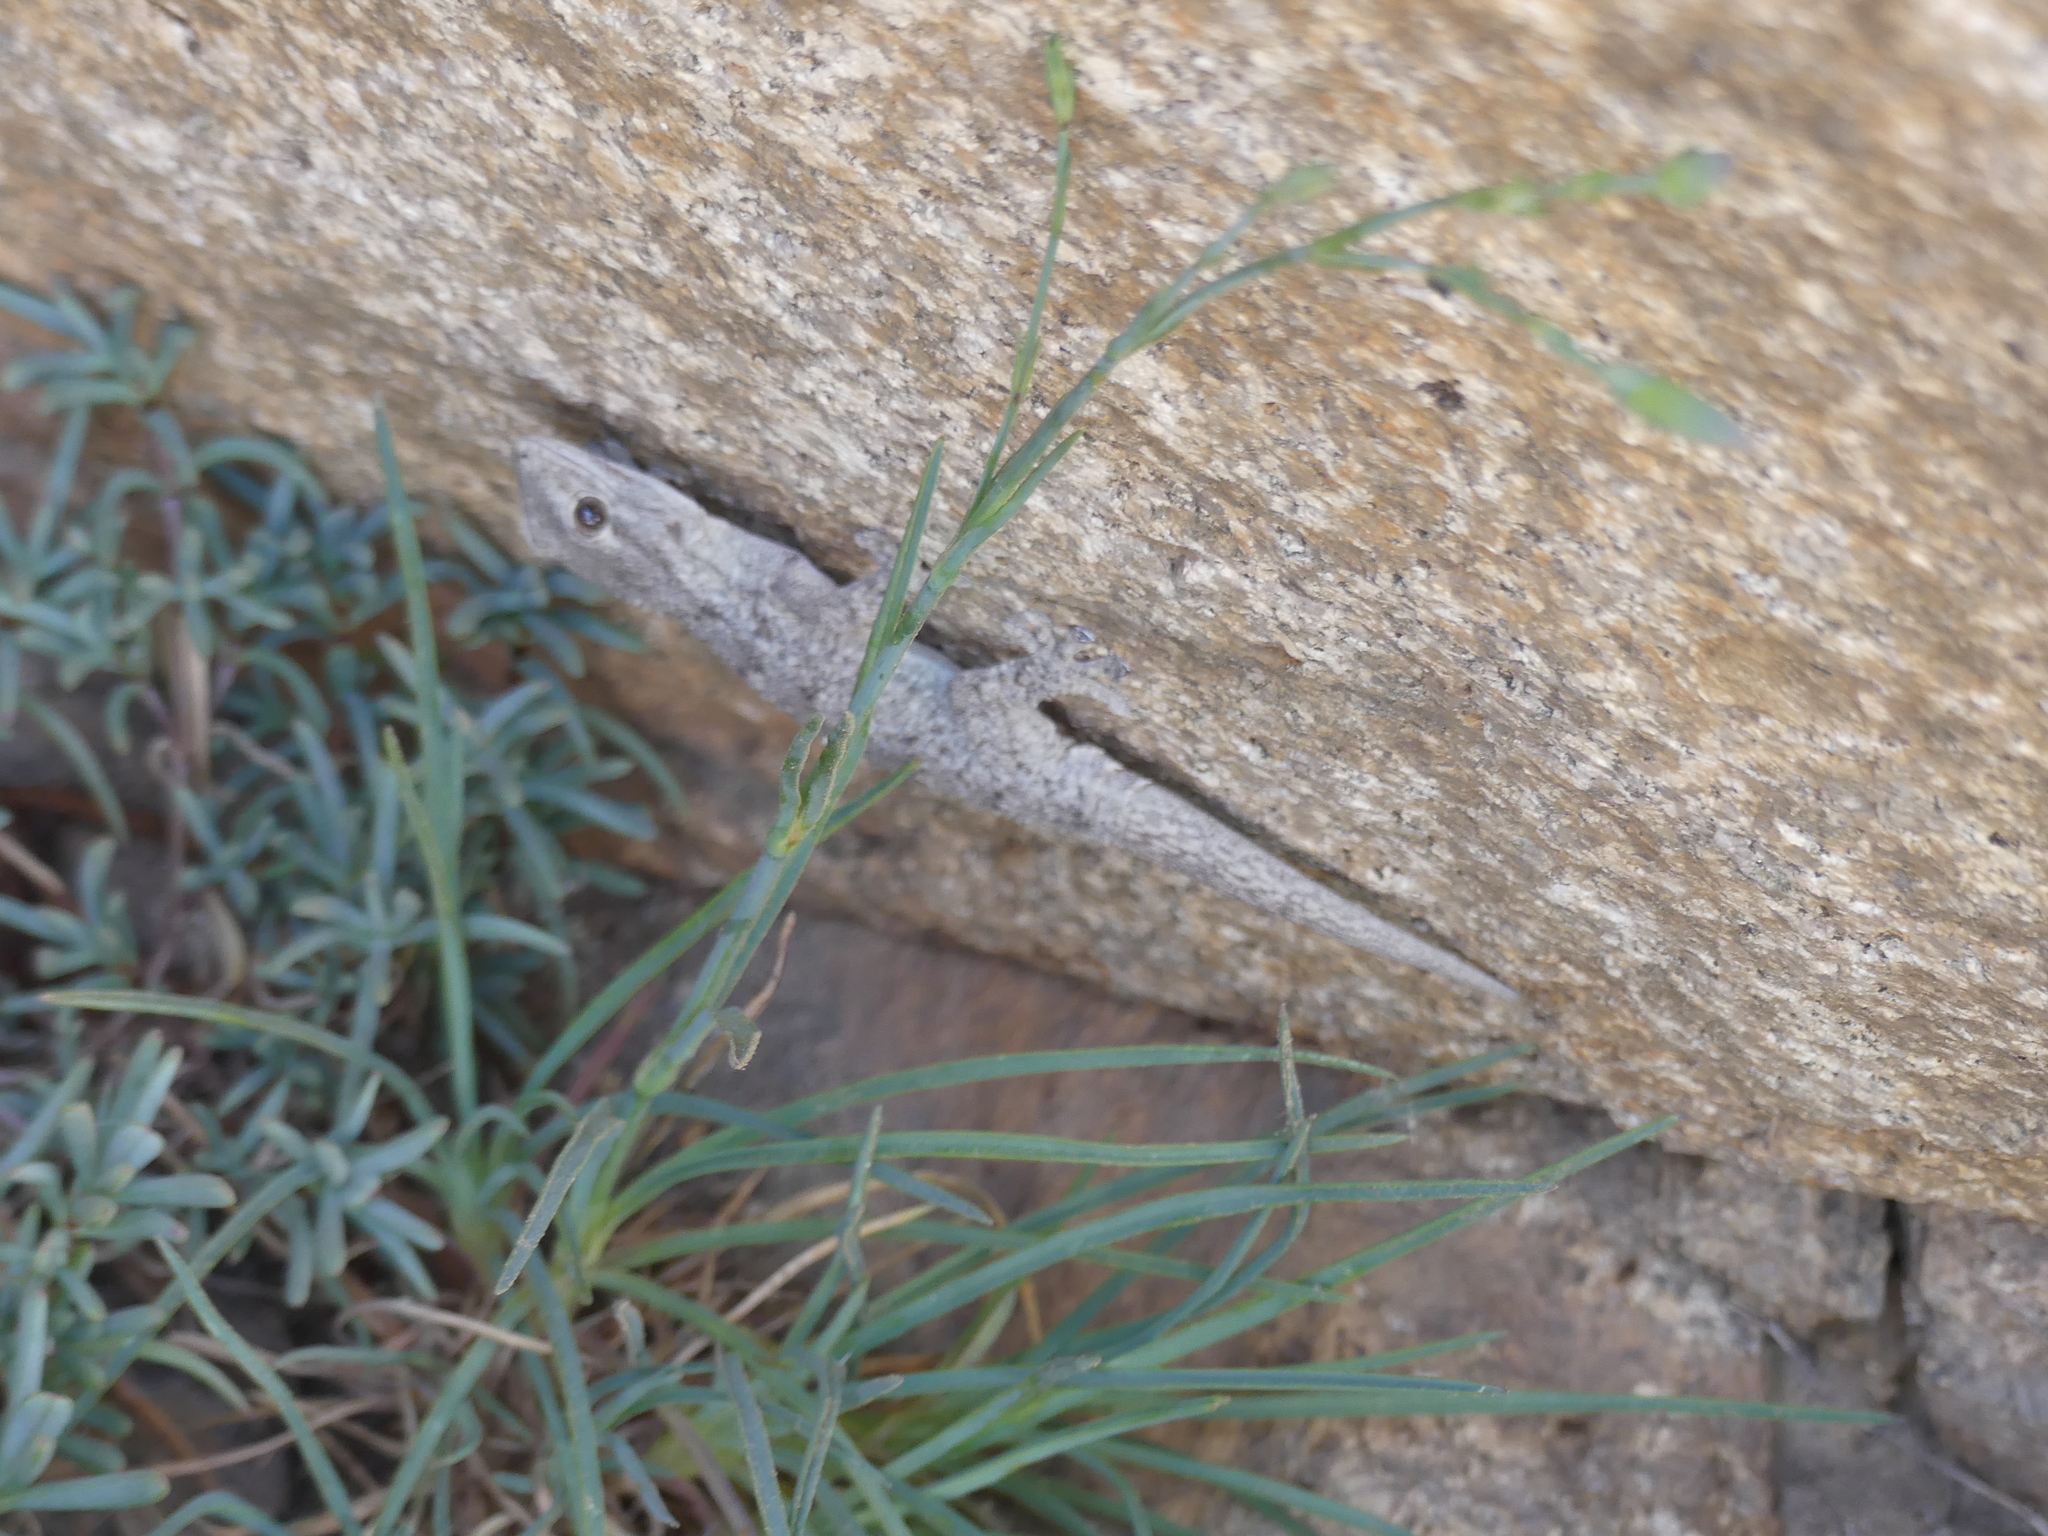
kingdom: Animalia
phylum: Chordata
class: Squamata
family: Phyllodactylidae
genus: Tarentola
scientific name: Tarentola mauritanica
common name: Moorish gecko
